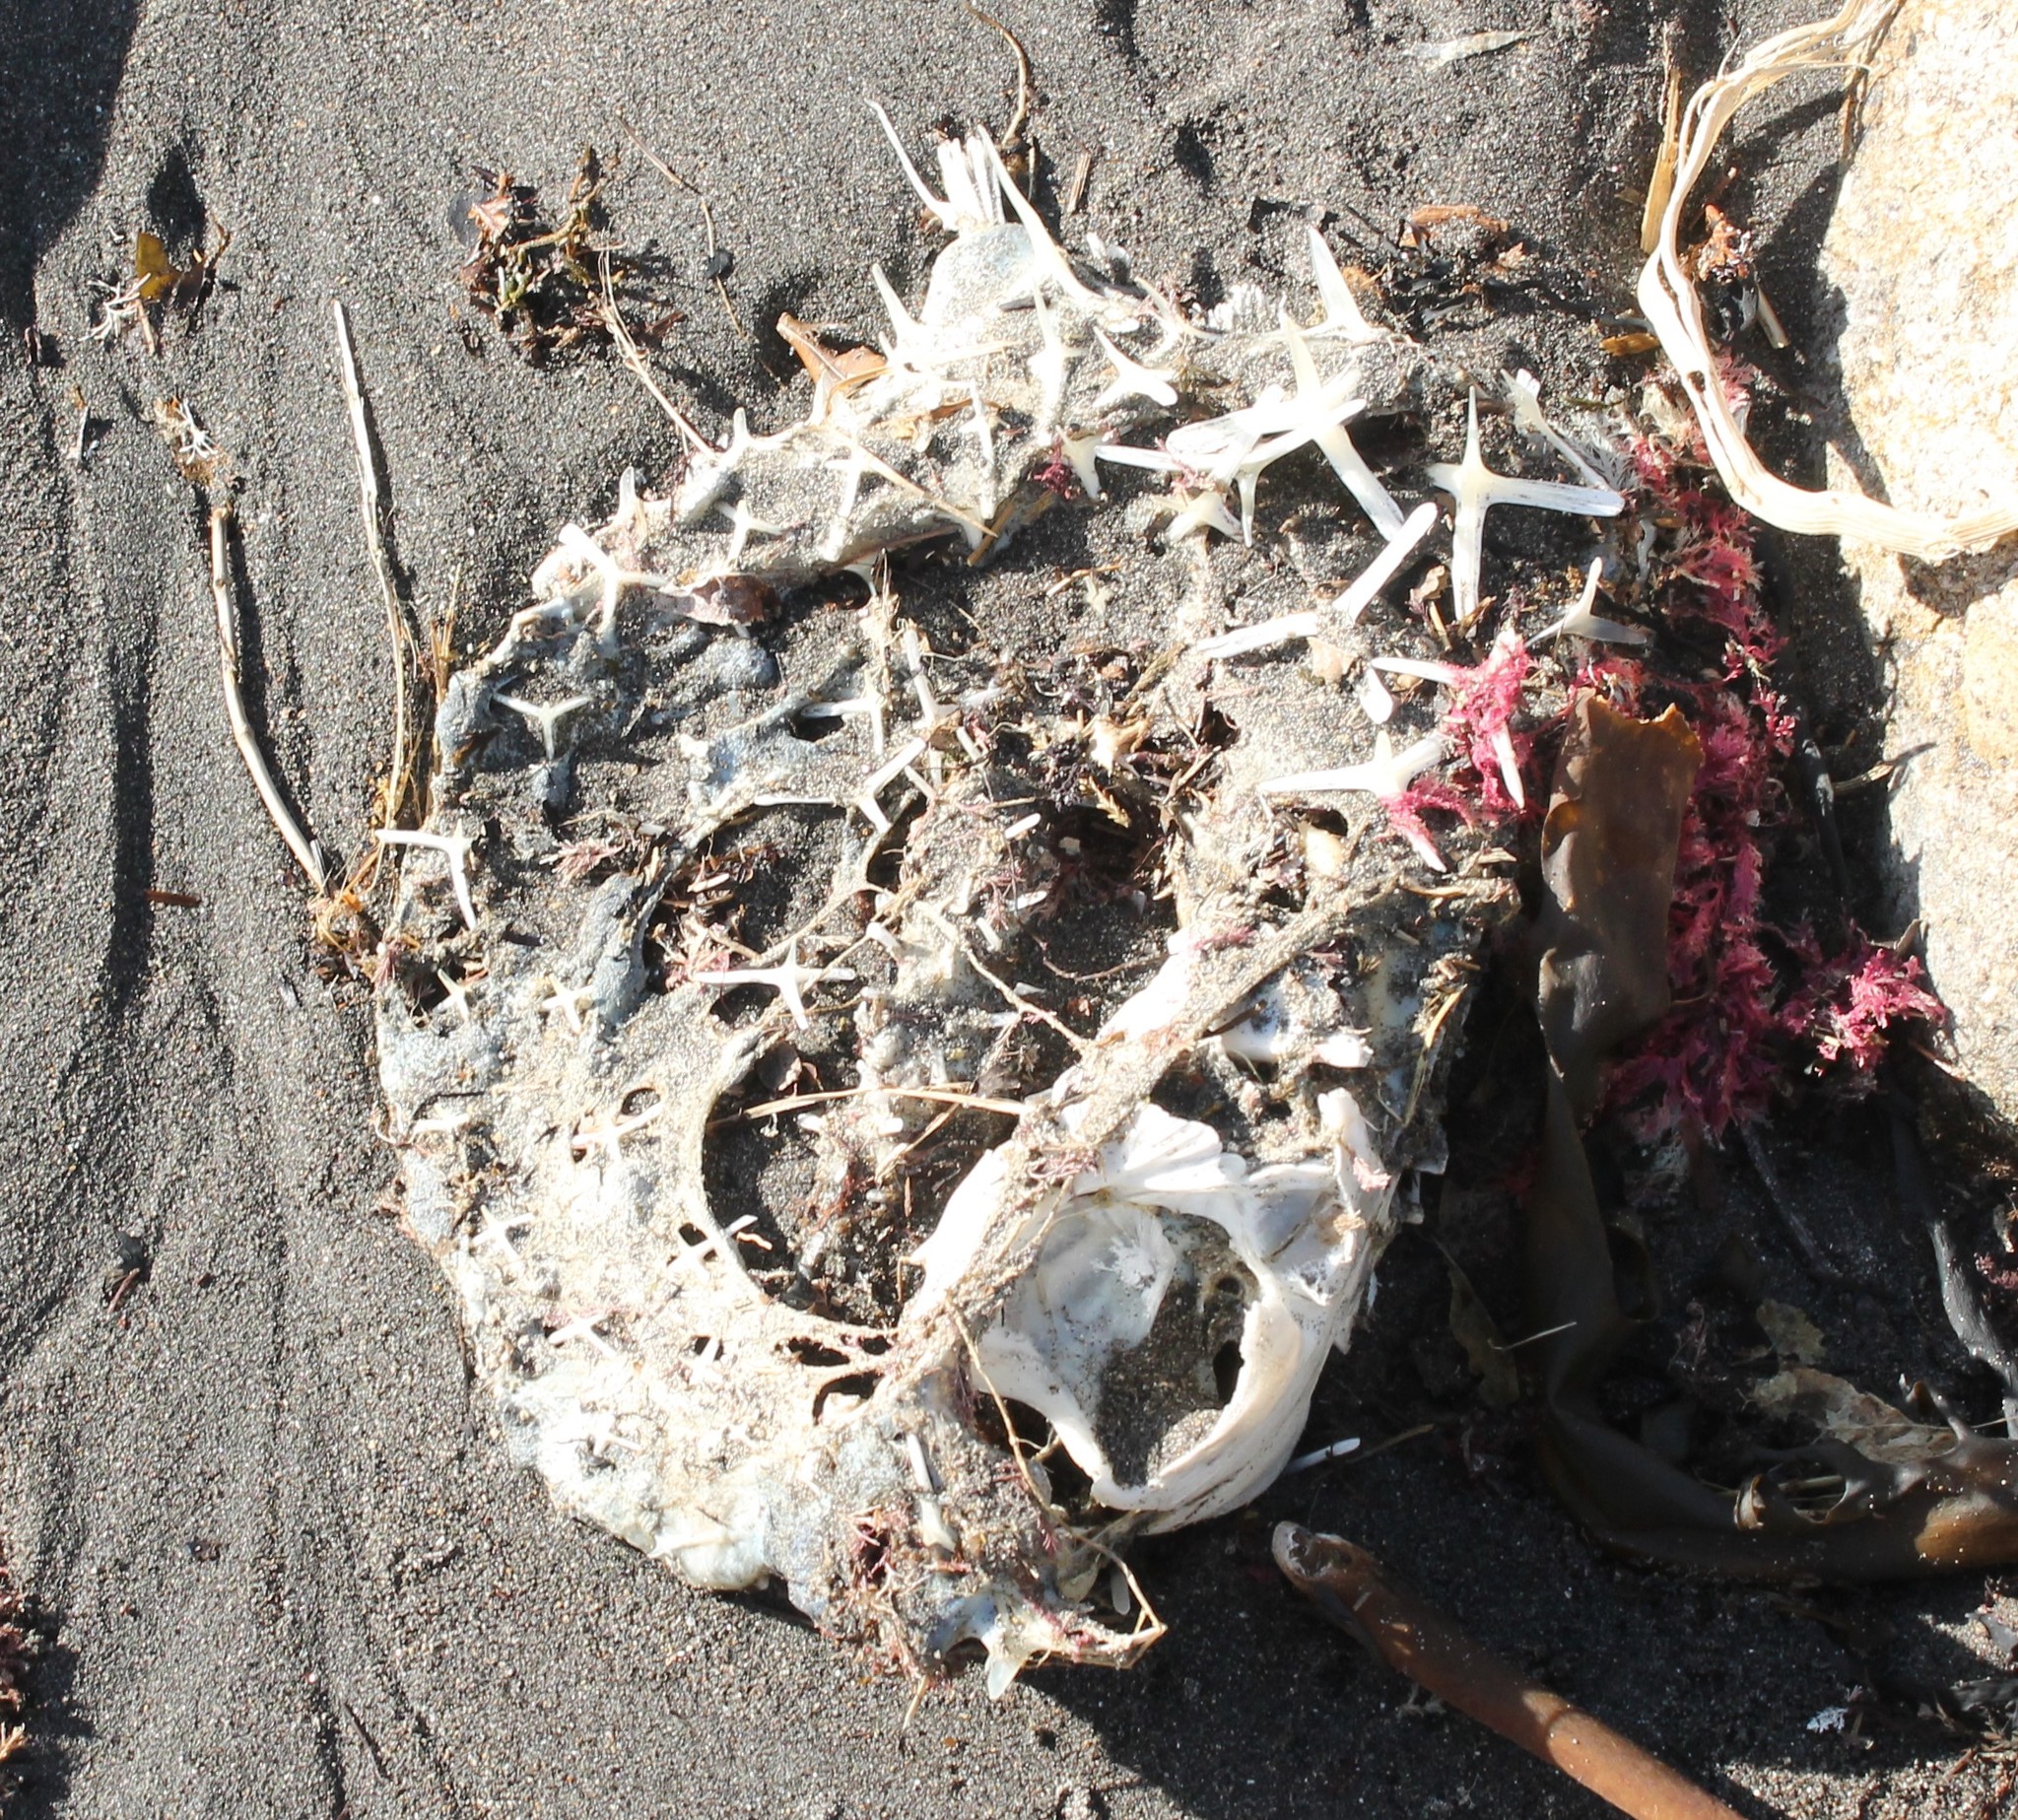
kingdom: Animalia
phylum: Chordata
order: Tetraodontiformes
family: Diodontidae
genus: Allomycterus
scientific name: Allomycterus pilatus
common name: No common name
